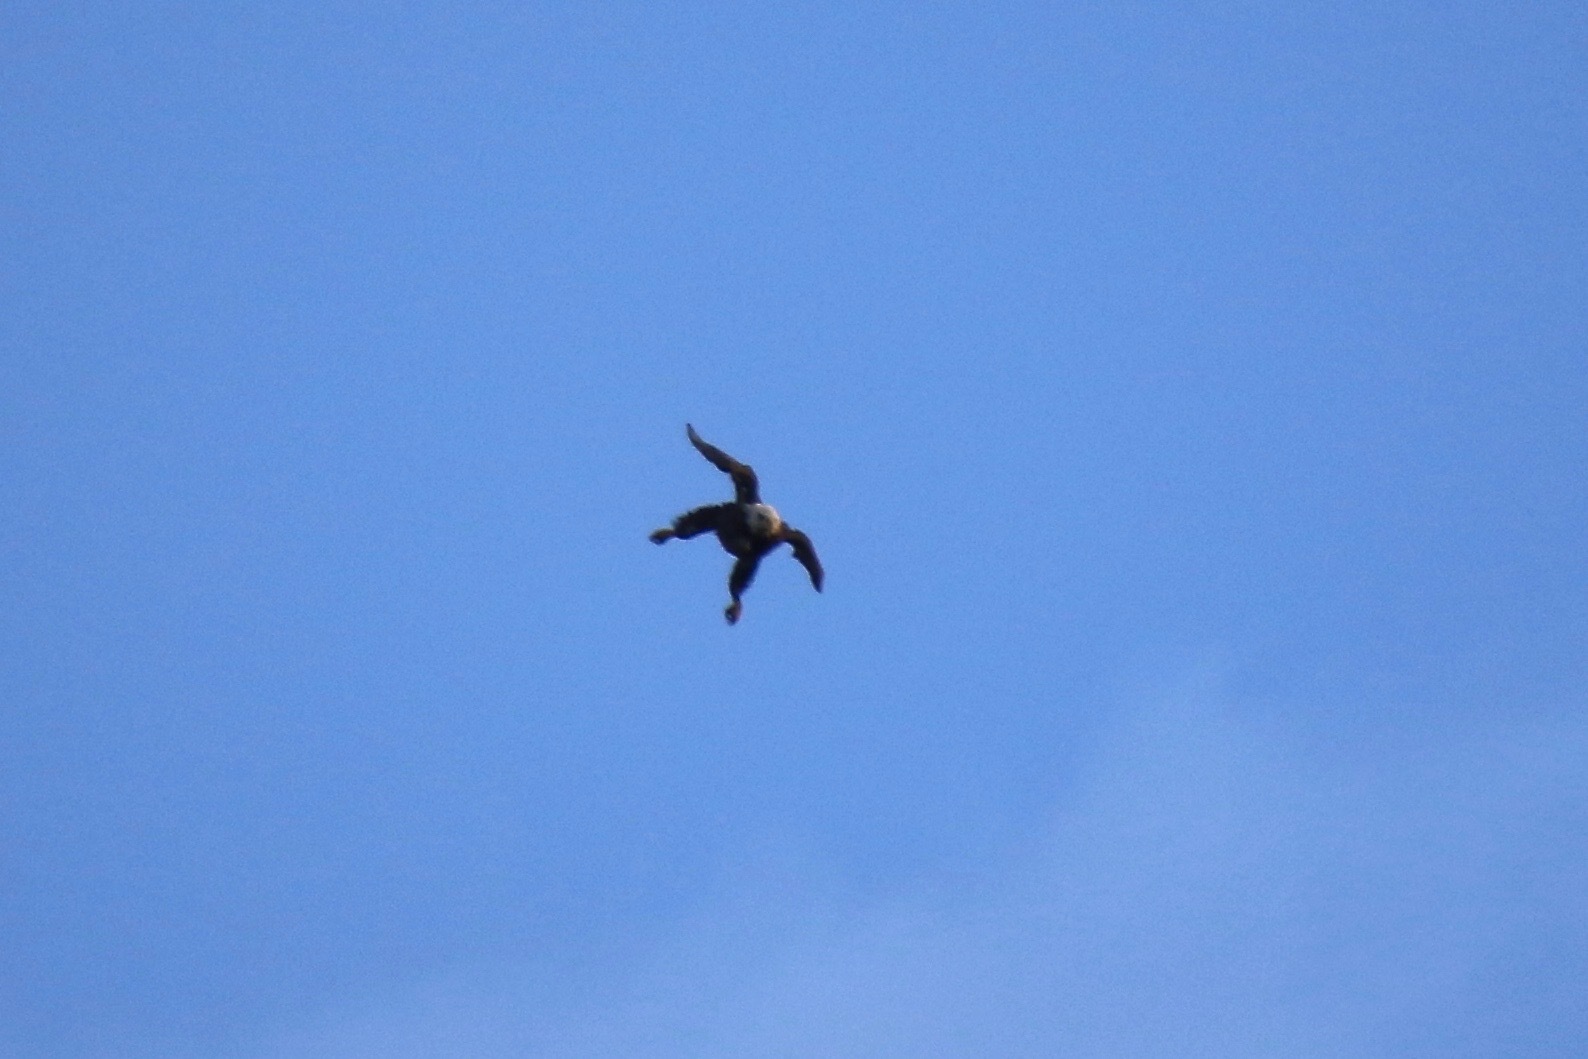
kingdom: Animalia
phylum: Chordata
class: Aves
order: Accipitriformes
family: Accipitridae
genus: Haliaeetus
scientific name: Haliaeetus leucocephalus
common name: Bald eagle
